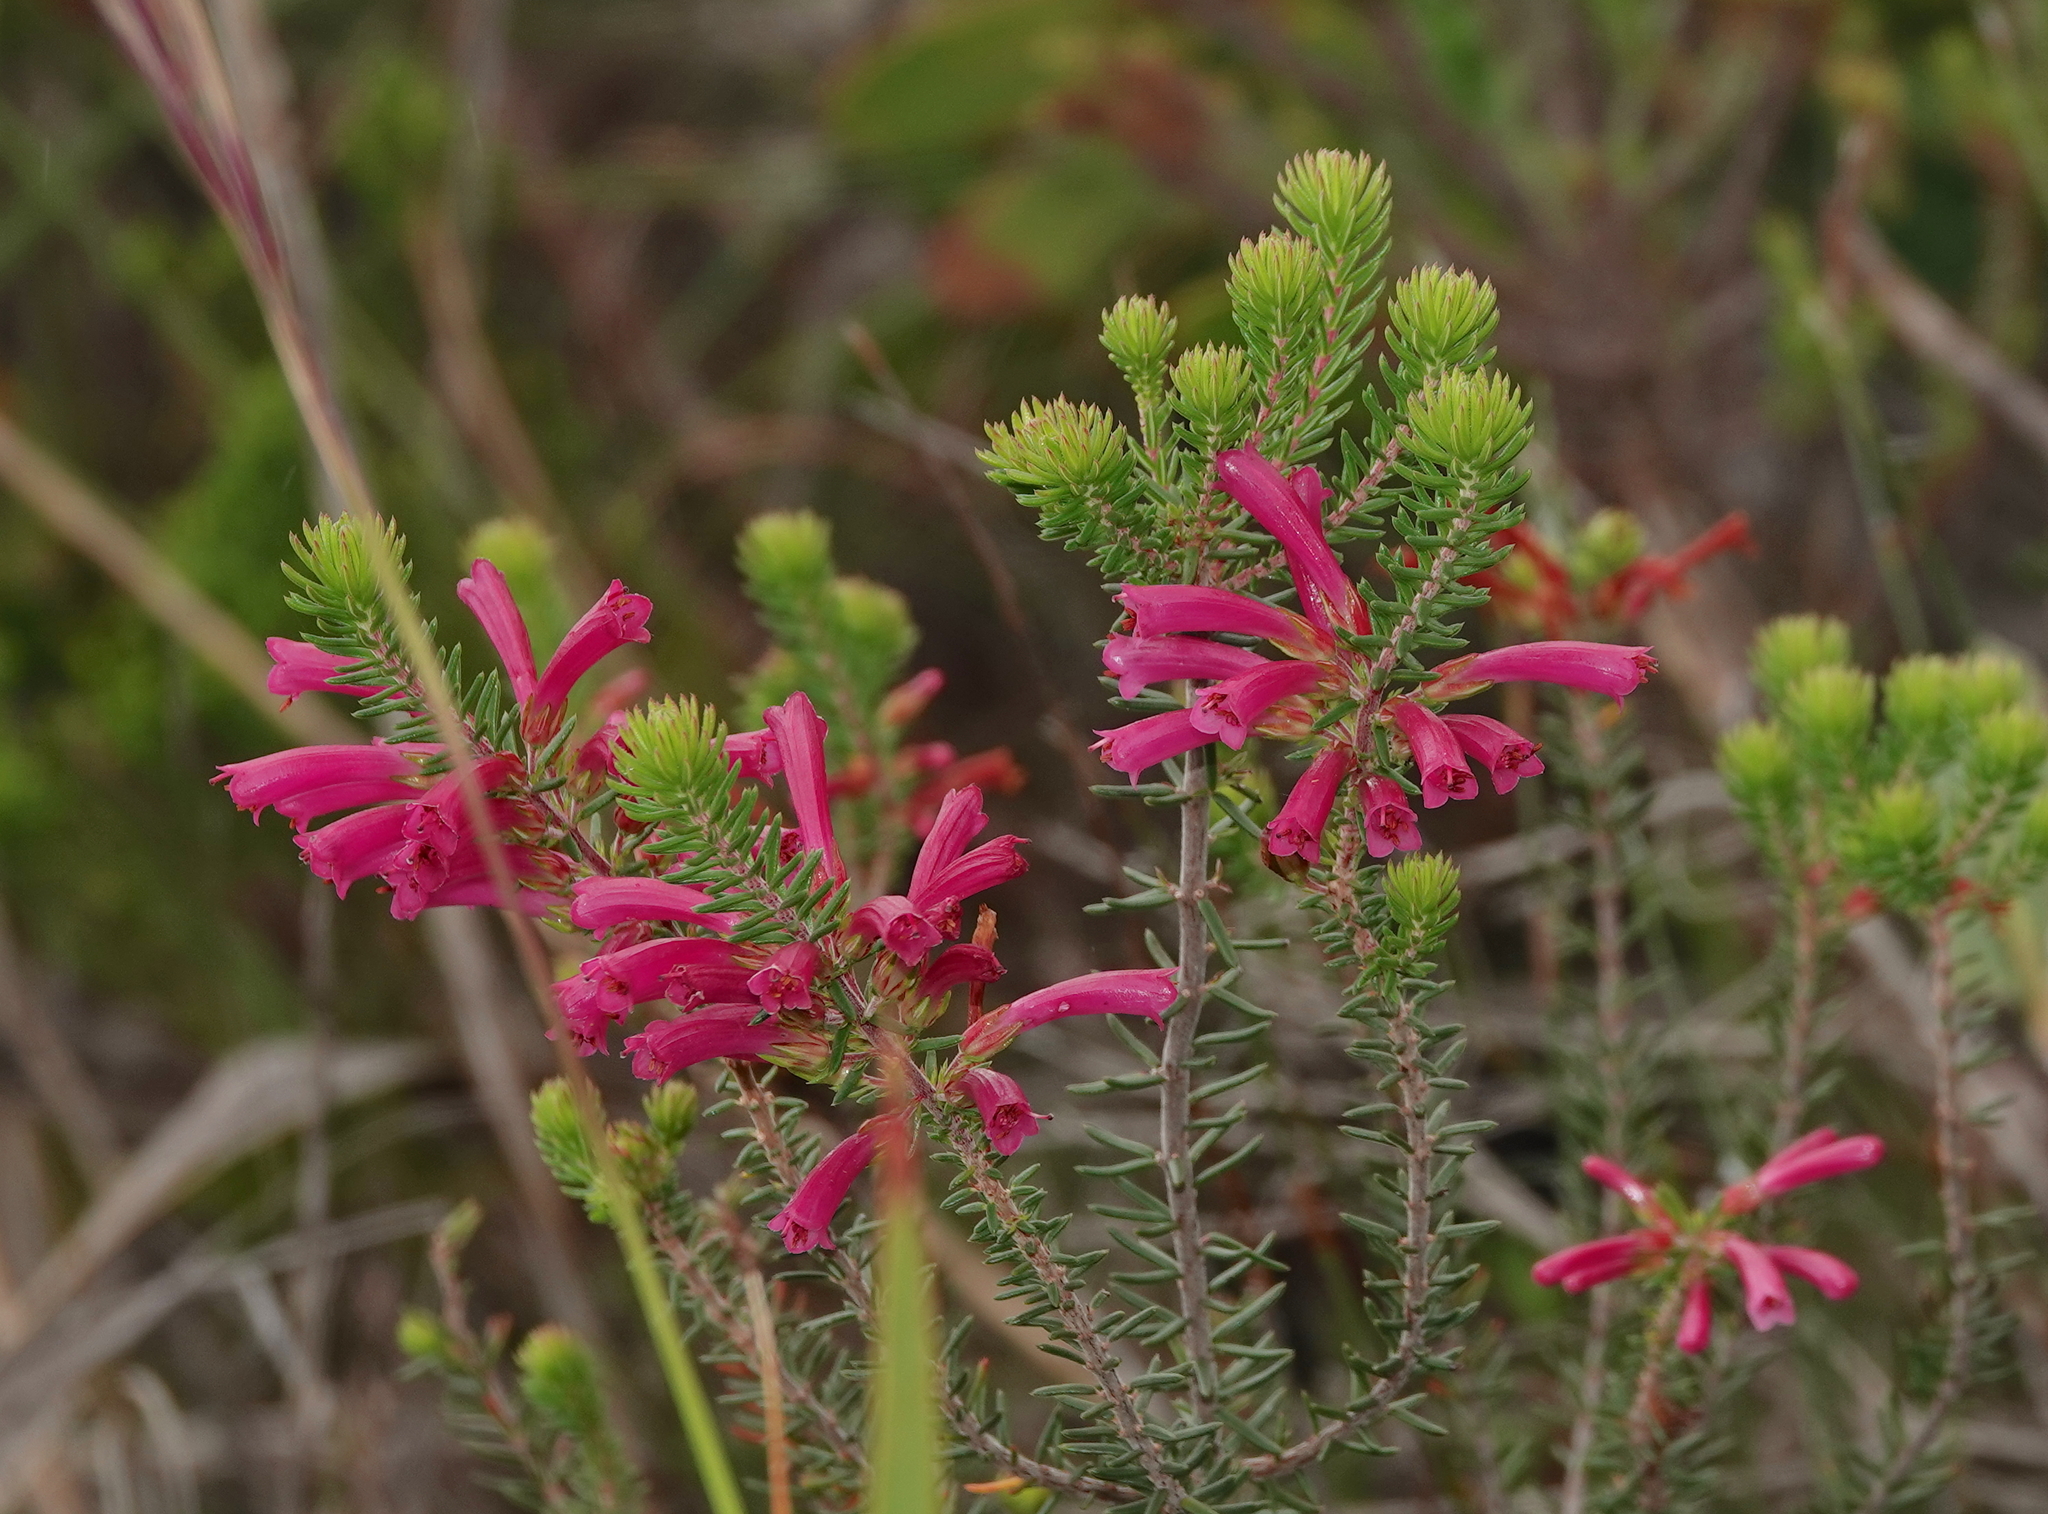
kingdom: Plantae
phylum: Tracheophyta
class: Magnoliopsida
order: Ericales
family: Ericaceae
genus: Erica
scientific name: Erica abietina
